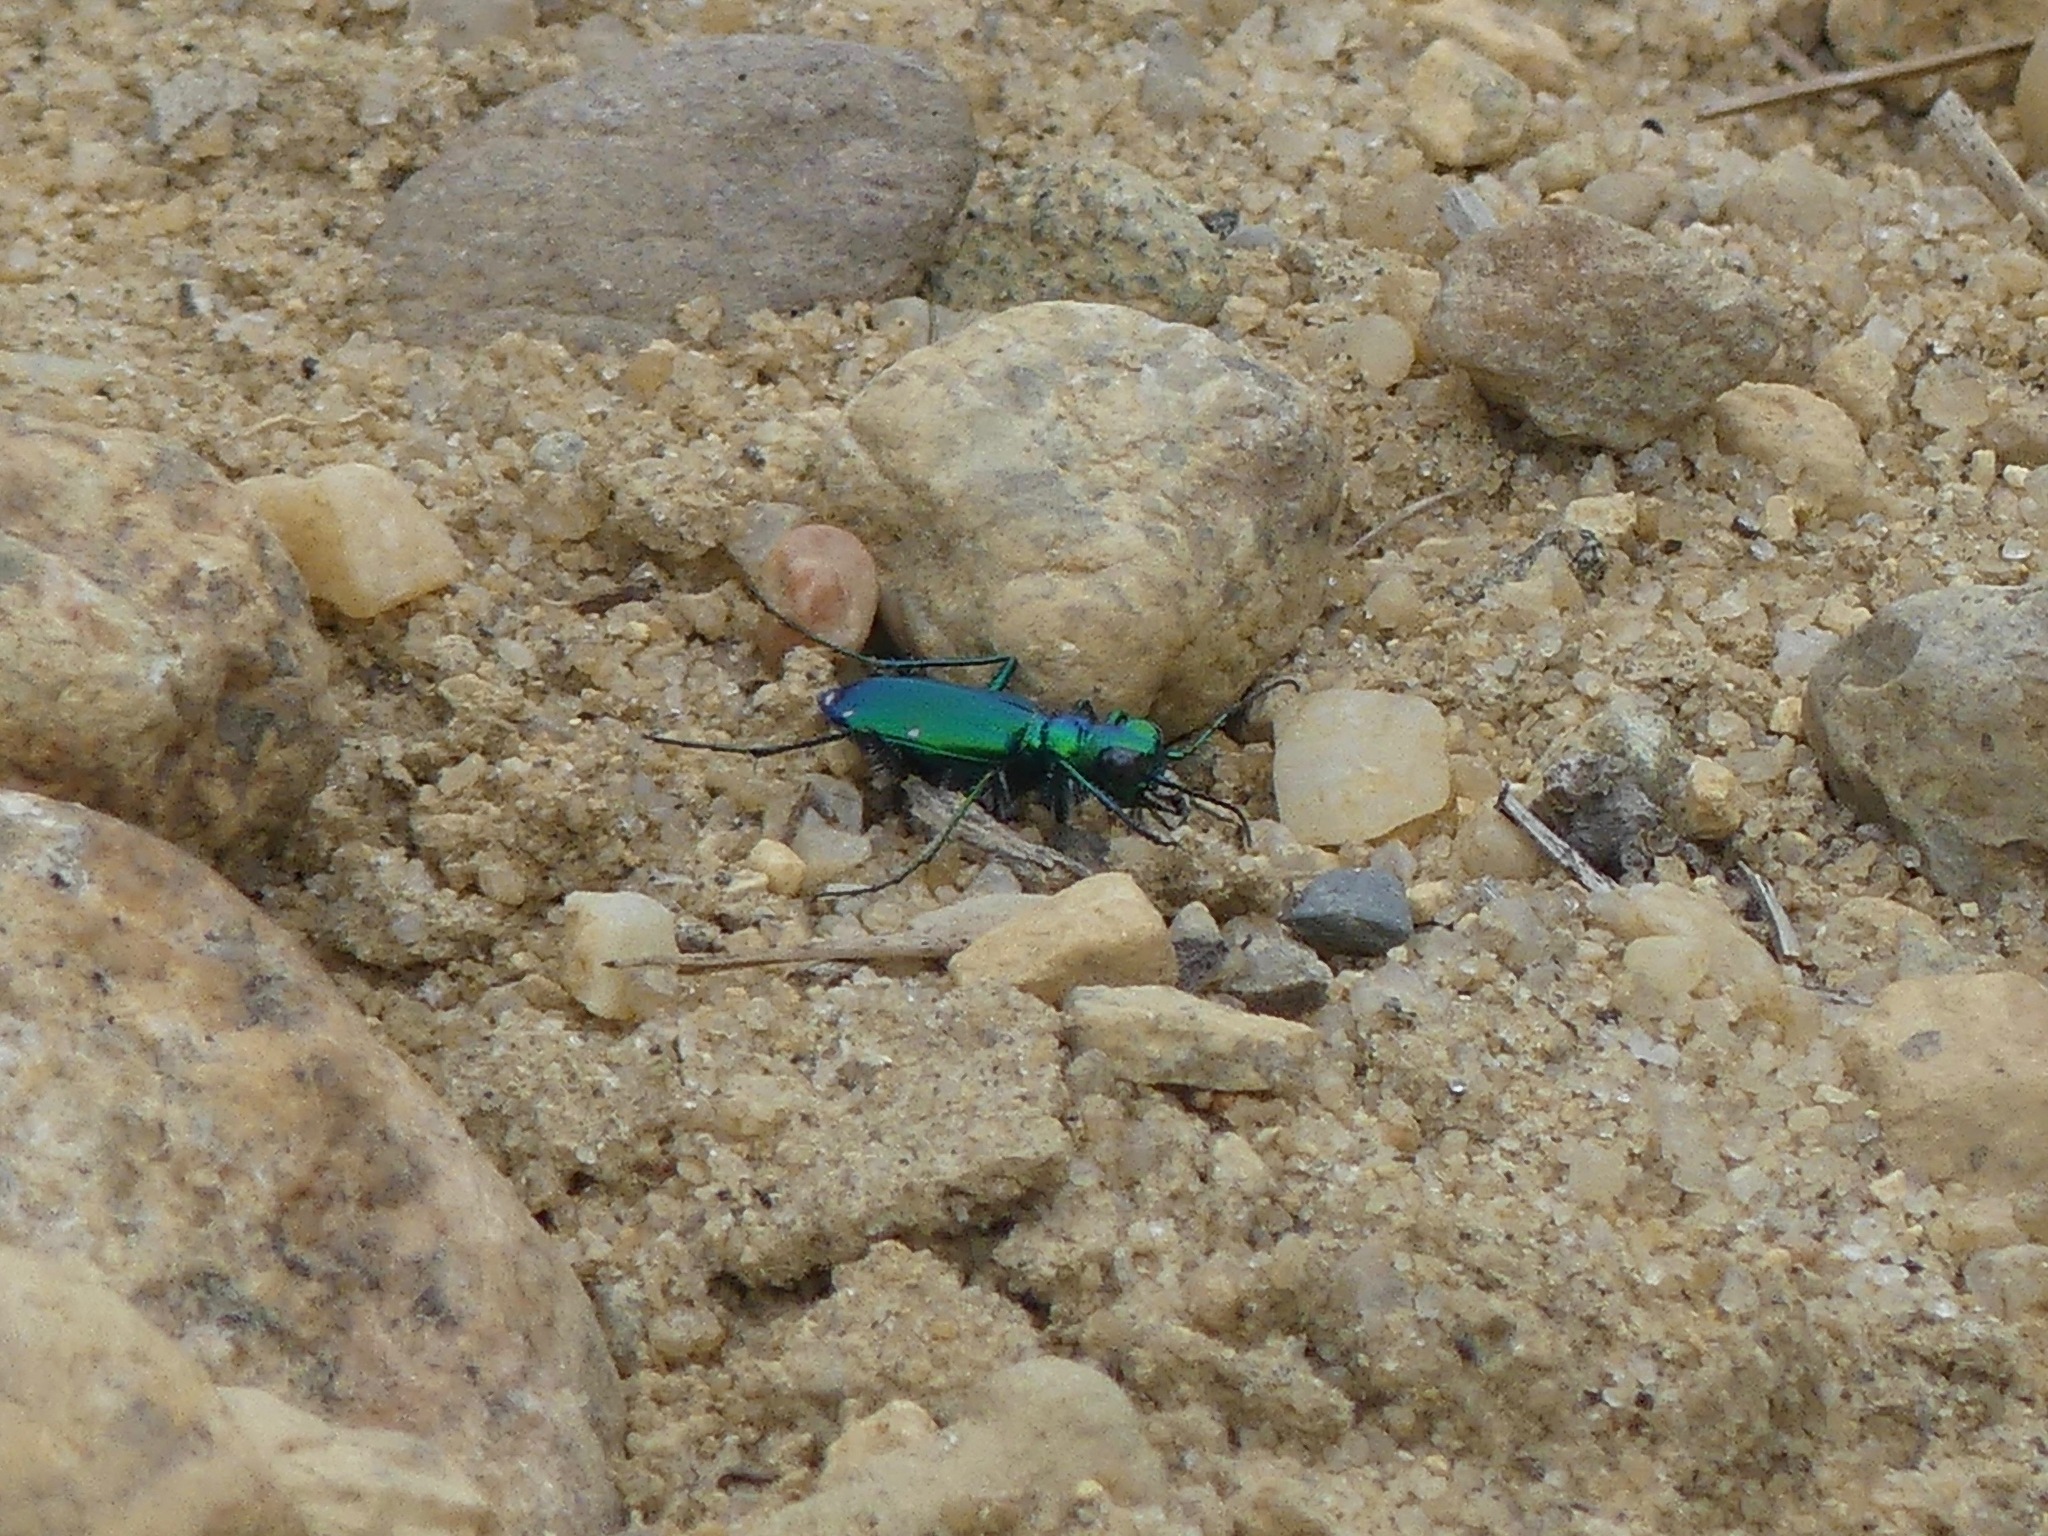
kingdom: Animalia
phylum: Arthropoda
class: Insecta
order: Coleoptera
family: Carabidae
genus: Cicindela
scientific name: Cicindela sexguttata
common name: Six-spotted tiger beetle
